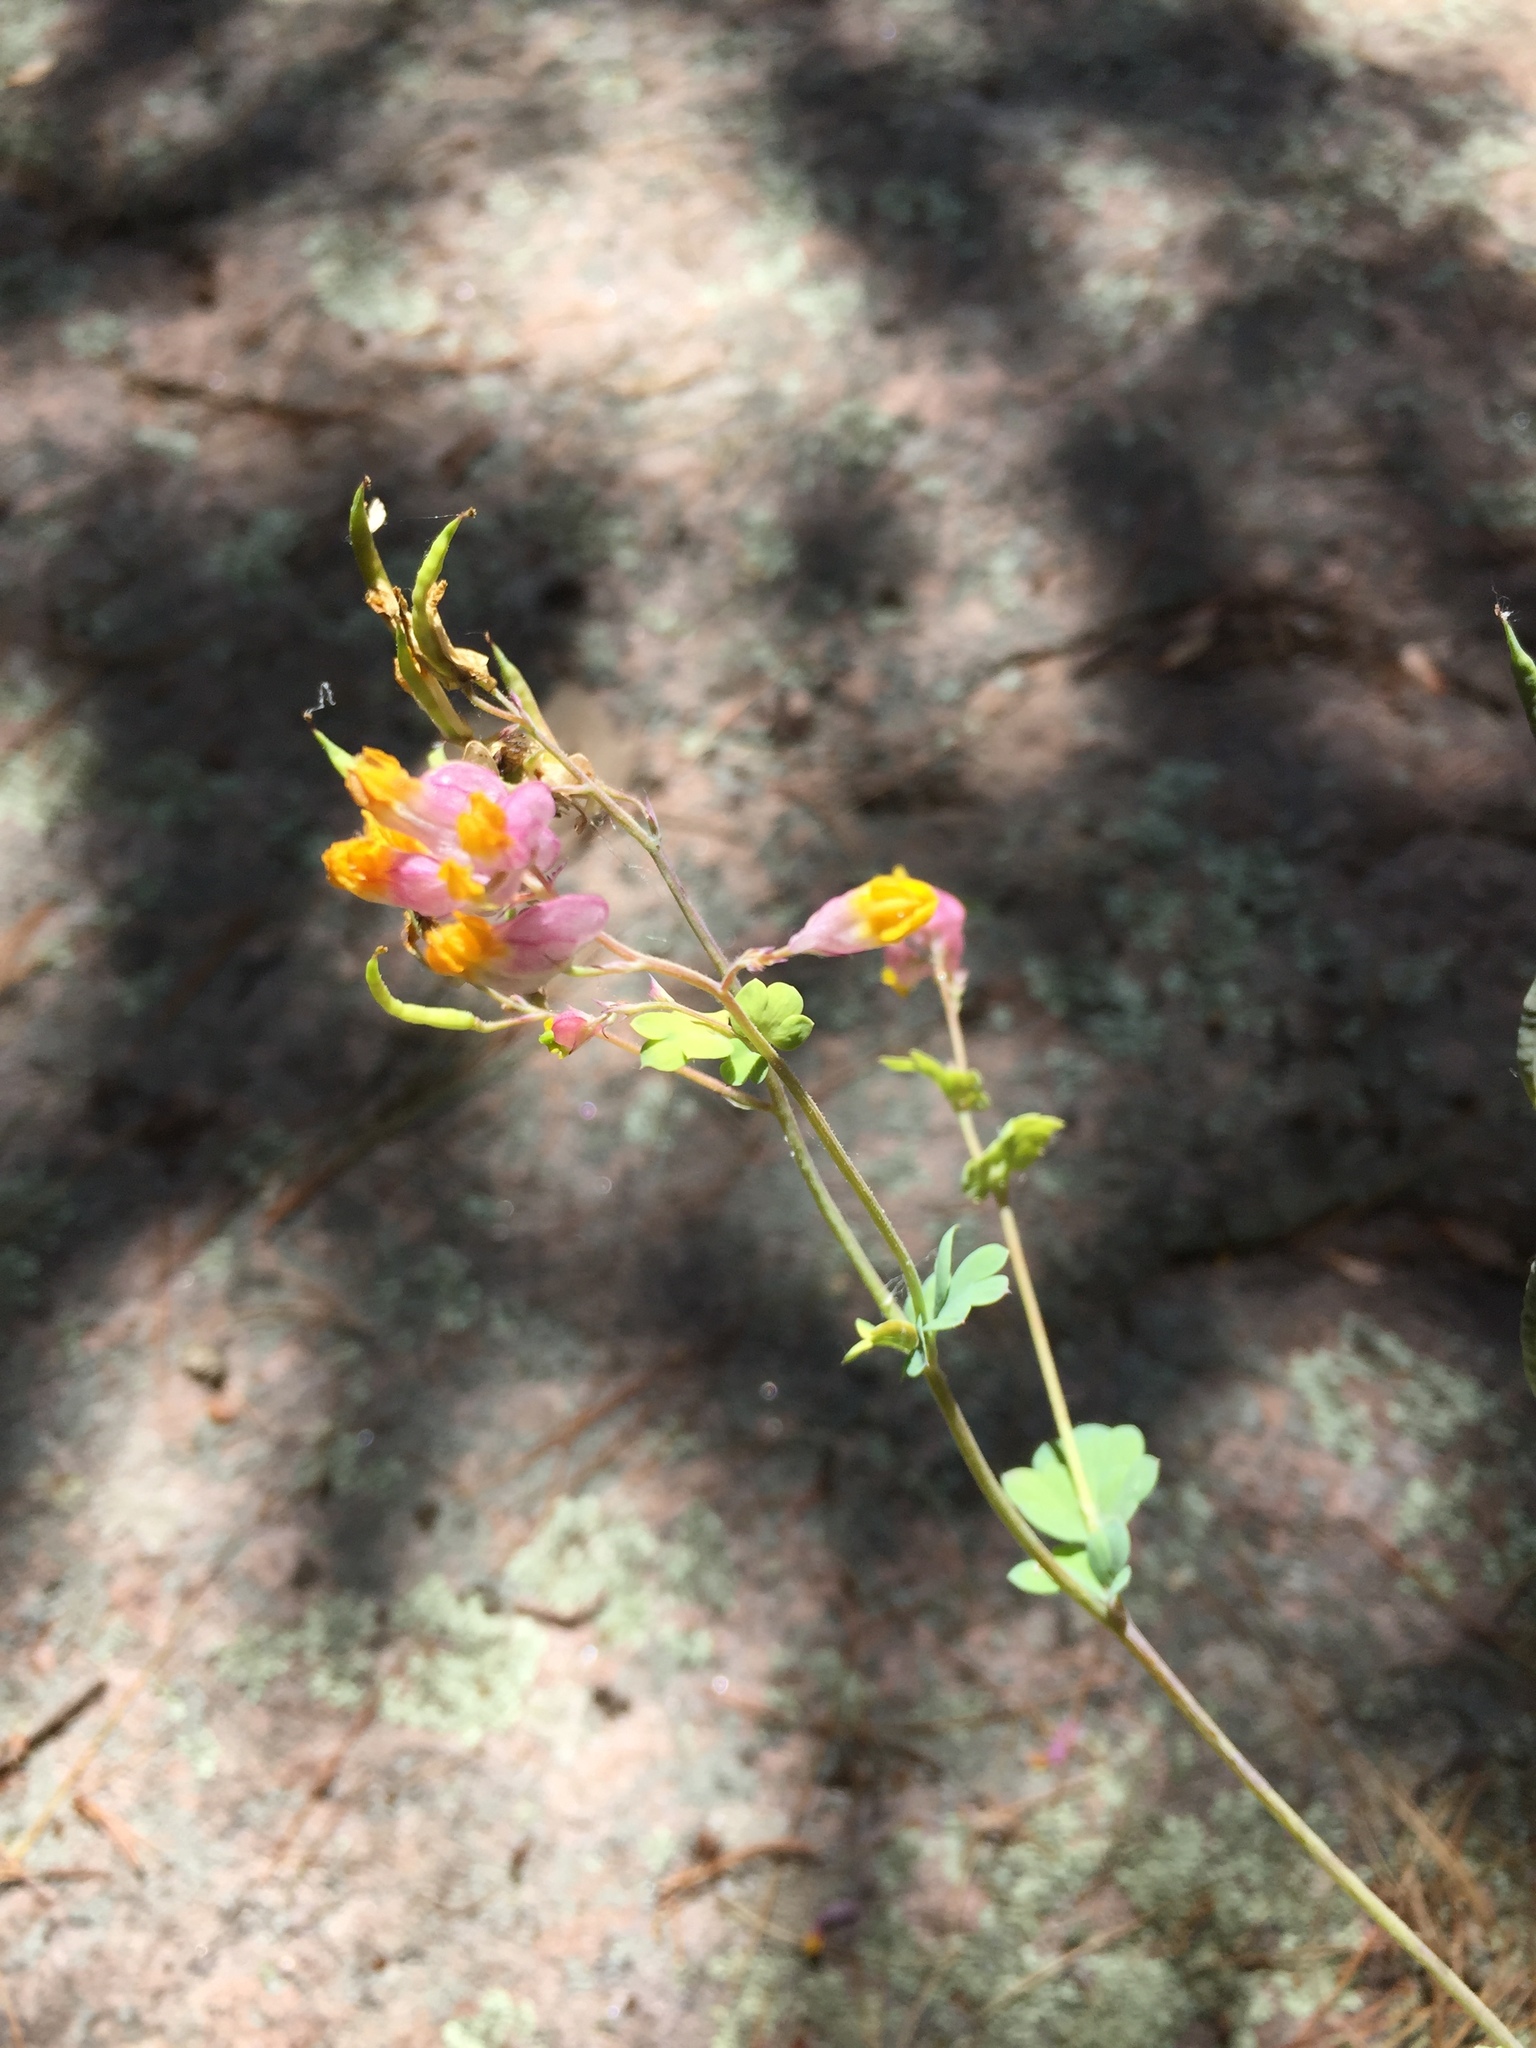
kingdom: Plantae
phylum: Tracheophyta
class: Magnoliopsida
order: Ranunculales
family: Papaveraceae
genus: Capnoides
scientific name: Capnoides sempervirens
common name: Rock harlequin
